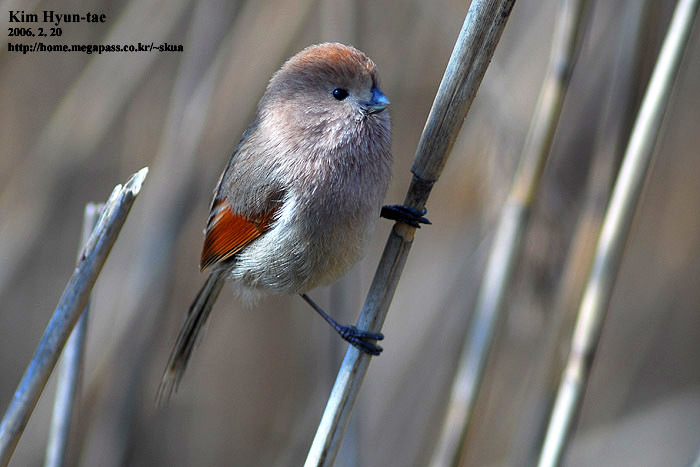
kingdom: Animalia
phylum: Chordata
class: Aves
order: Passeriformes
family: Sylviidae
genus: Sinosuthora
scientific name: Sinosuthora webbiana
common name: Vinous-throated parrotbill
